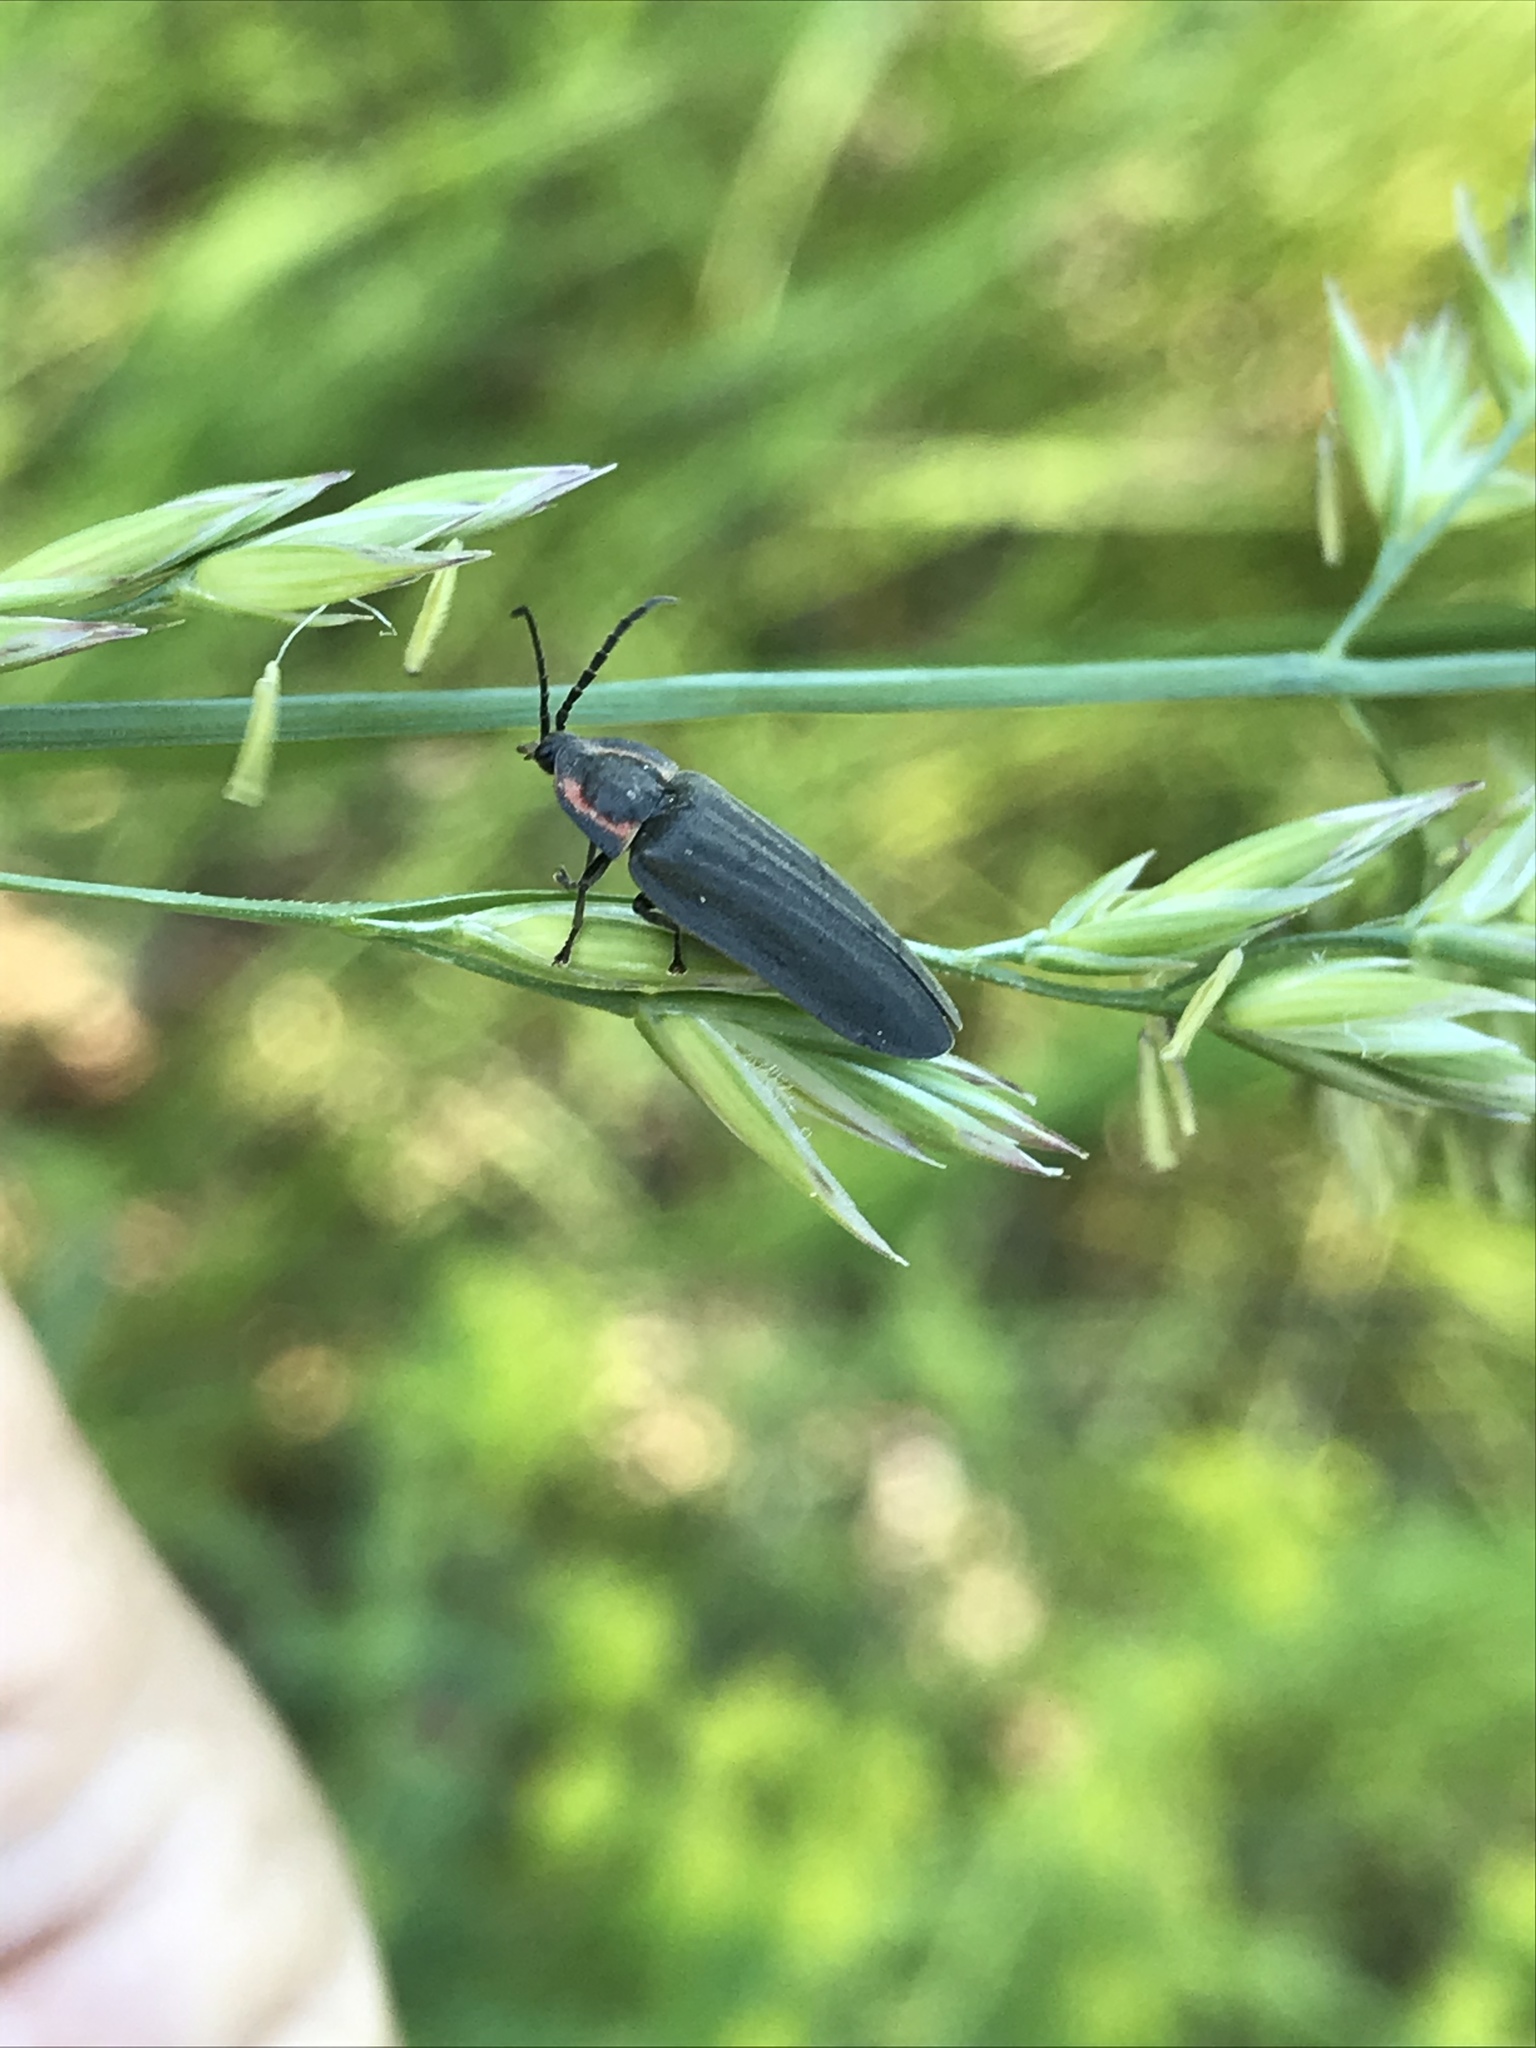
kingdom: Animalia
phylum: Arthropoda
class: Insecta
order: Coleoptera
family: Lampyridae
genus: Photinus
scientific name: Photinus corrusca
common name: Winter firefly
